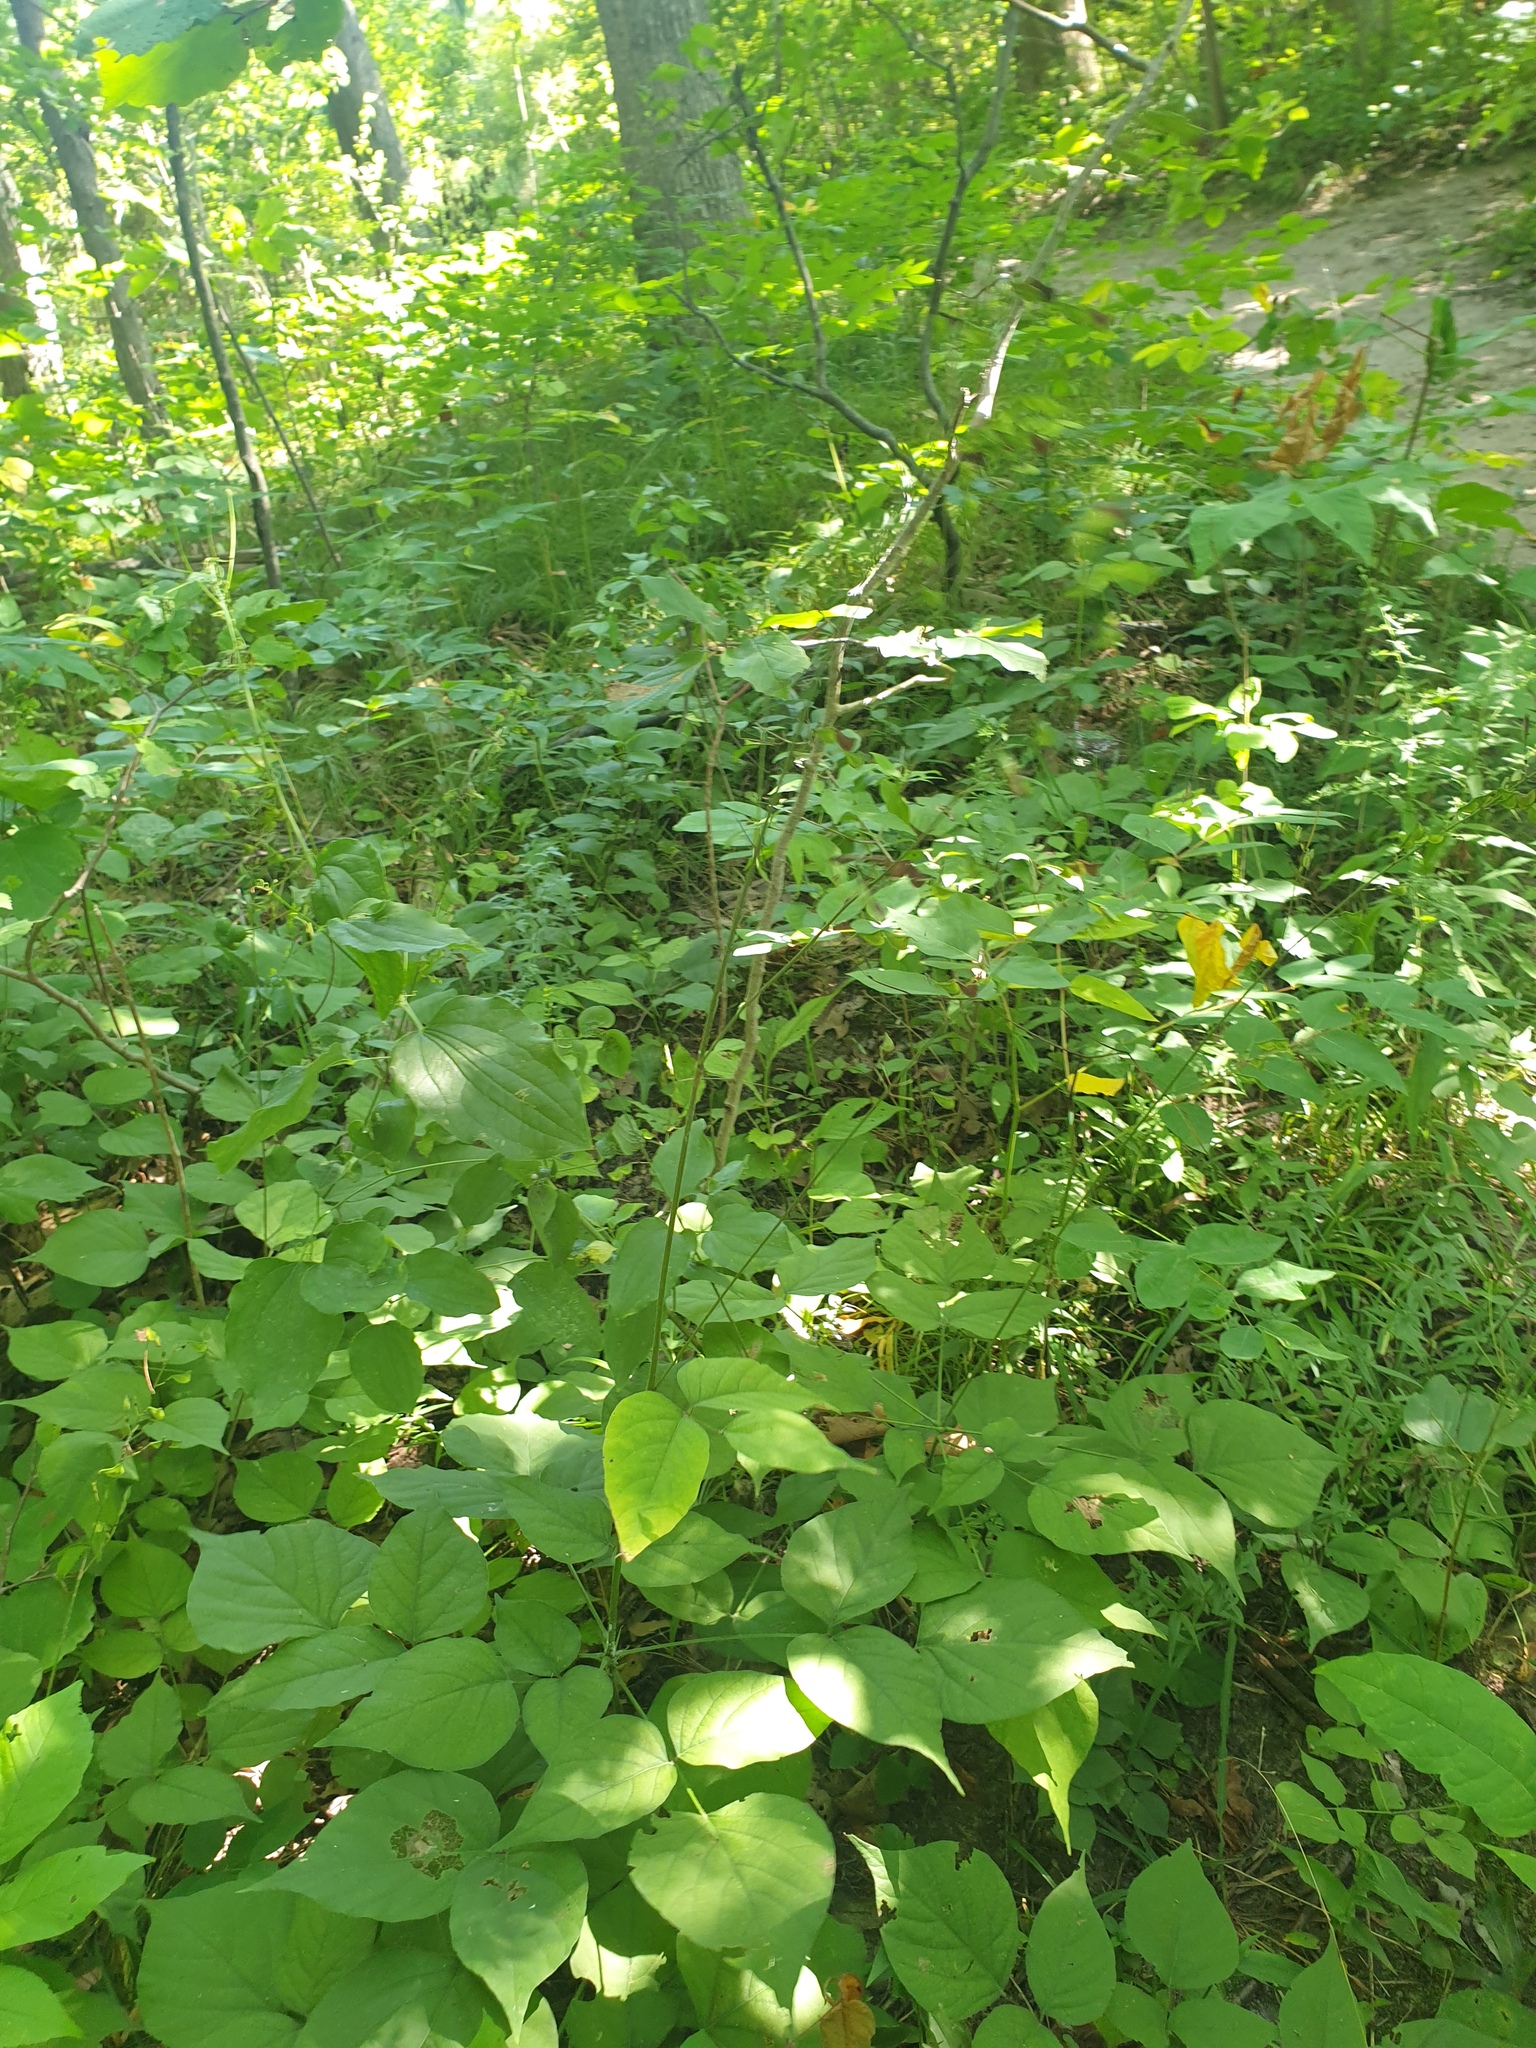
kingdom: Plantae
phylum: Tracheophyta
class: Magnoliopsida
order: Fabales
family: Fabaceae
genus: Hylodesmum
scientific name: Hylodesmum glutinosum
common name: Clustered-leaved tick-trefoil
